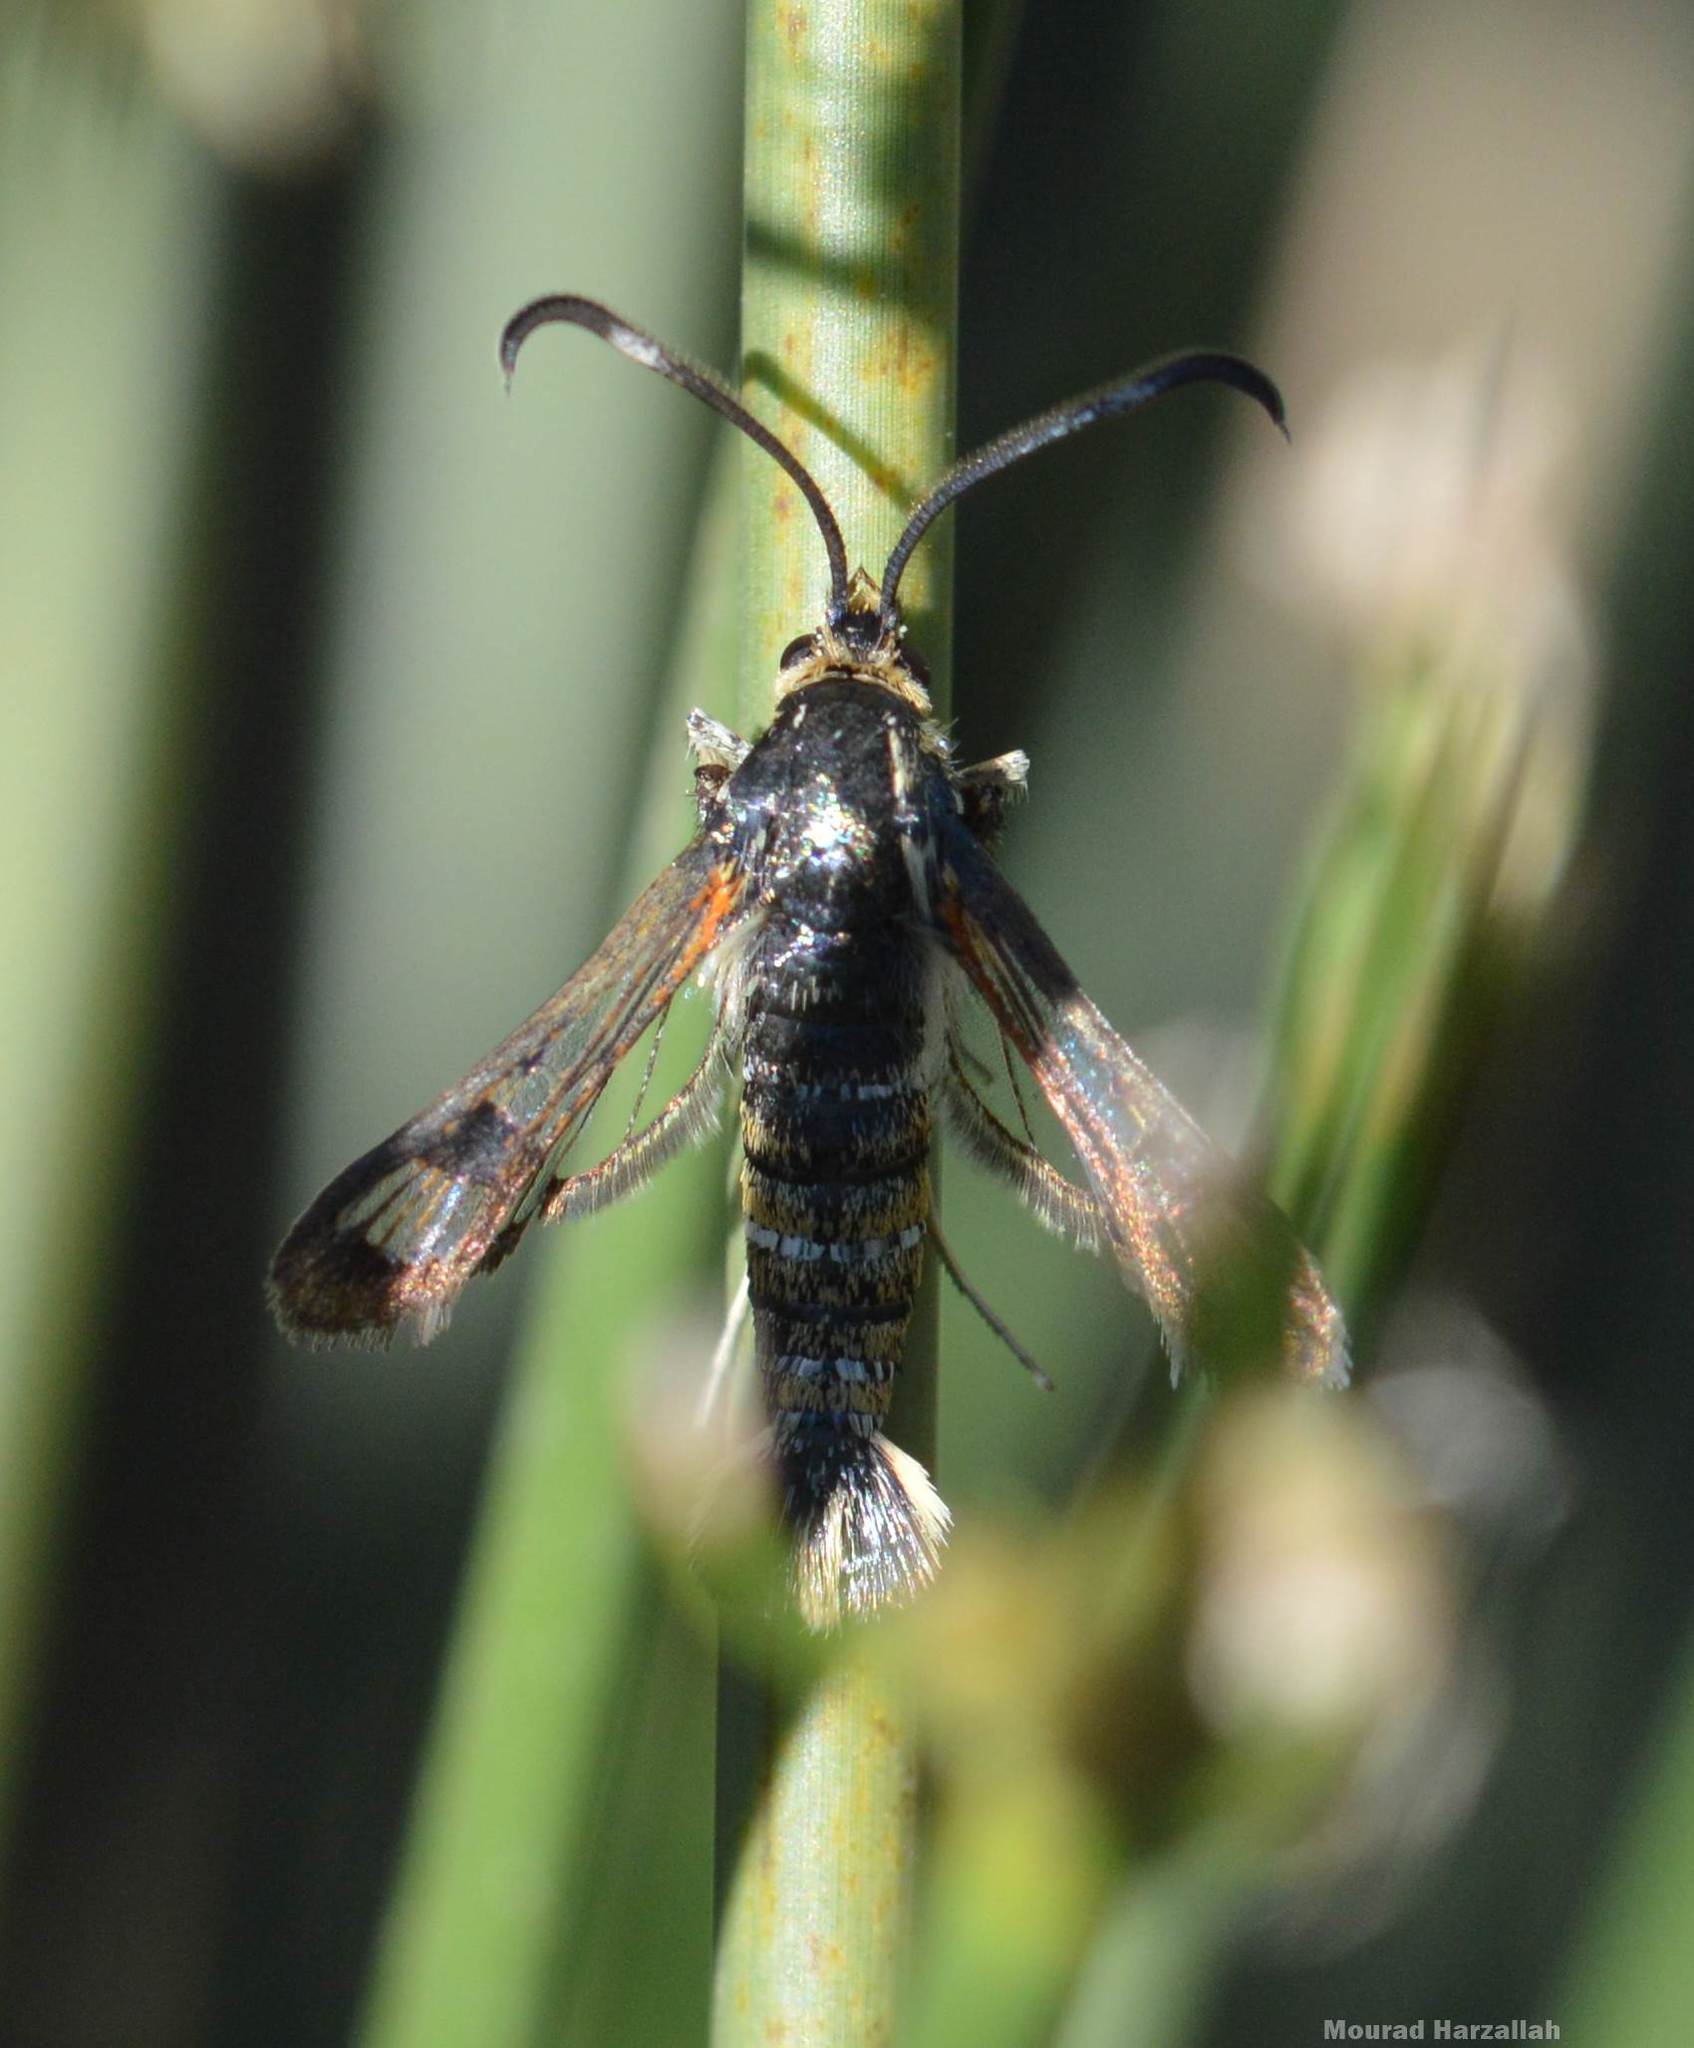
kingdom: Animalia
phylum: Arthropoda
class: Insecta
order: Lepidoptera
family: Sesiidae
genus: Pyropteron
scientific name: Pyropteron euglossaeformis
